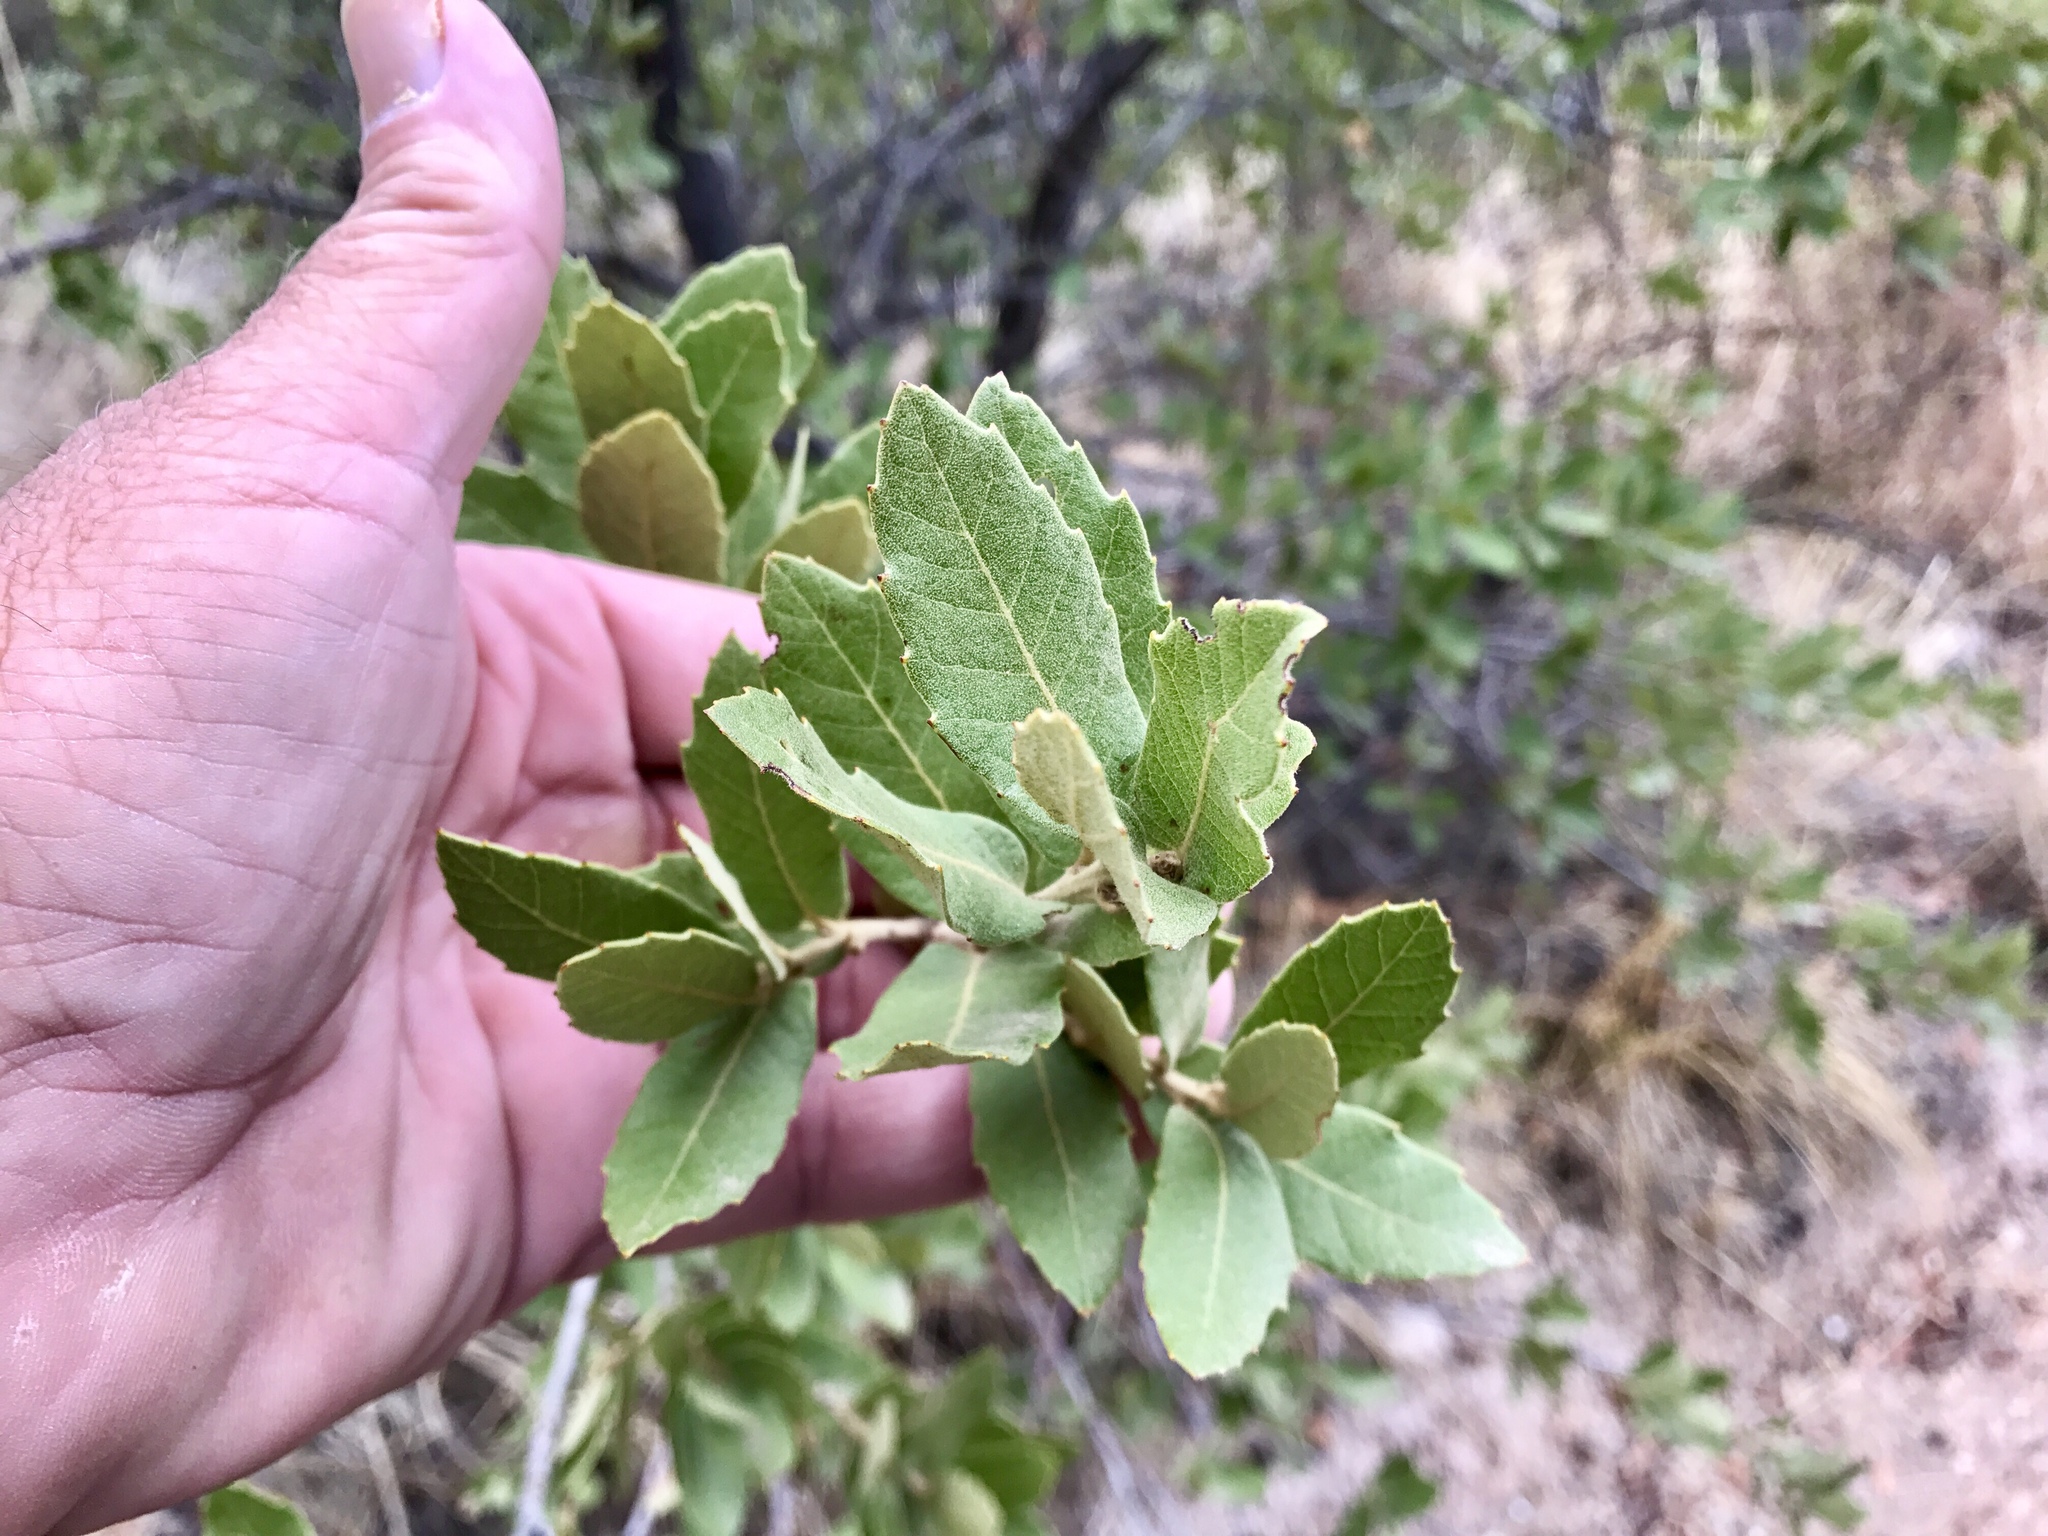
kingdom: Plantae
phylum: Tracheophyta
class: Magnoliopsida
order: Fagales
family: Fagaceae
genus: Quercus
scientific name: Quercus emoryi
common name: Emory oak
